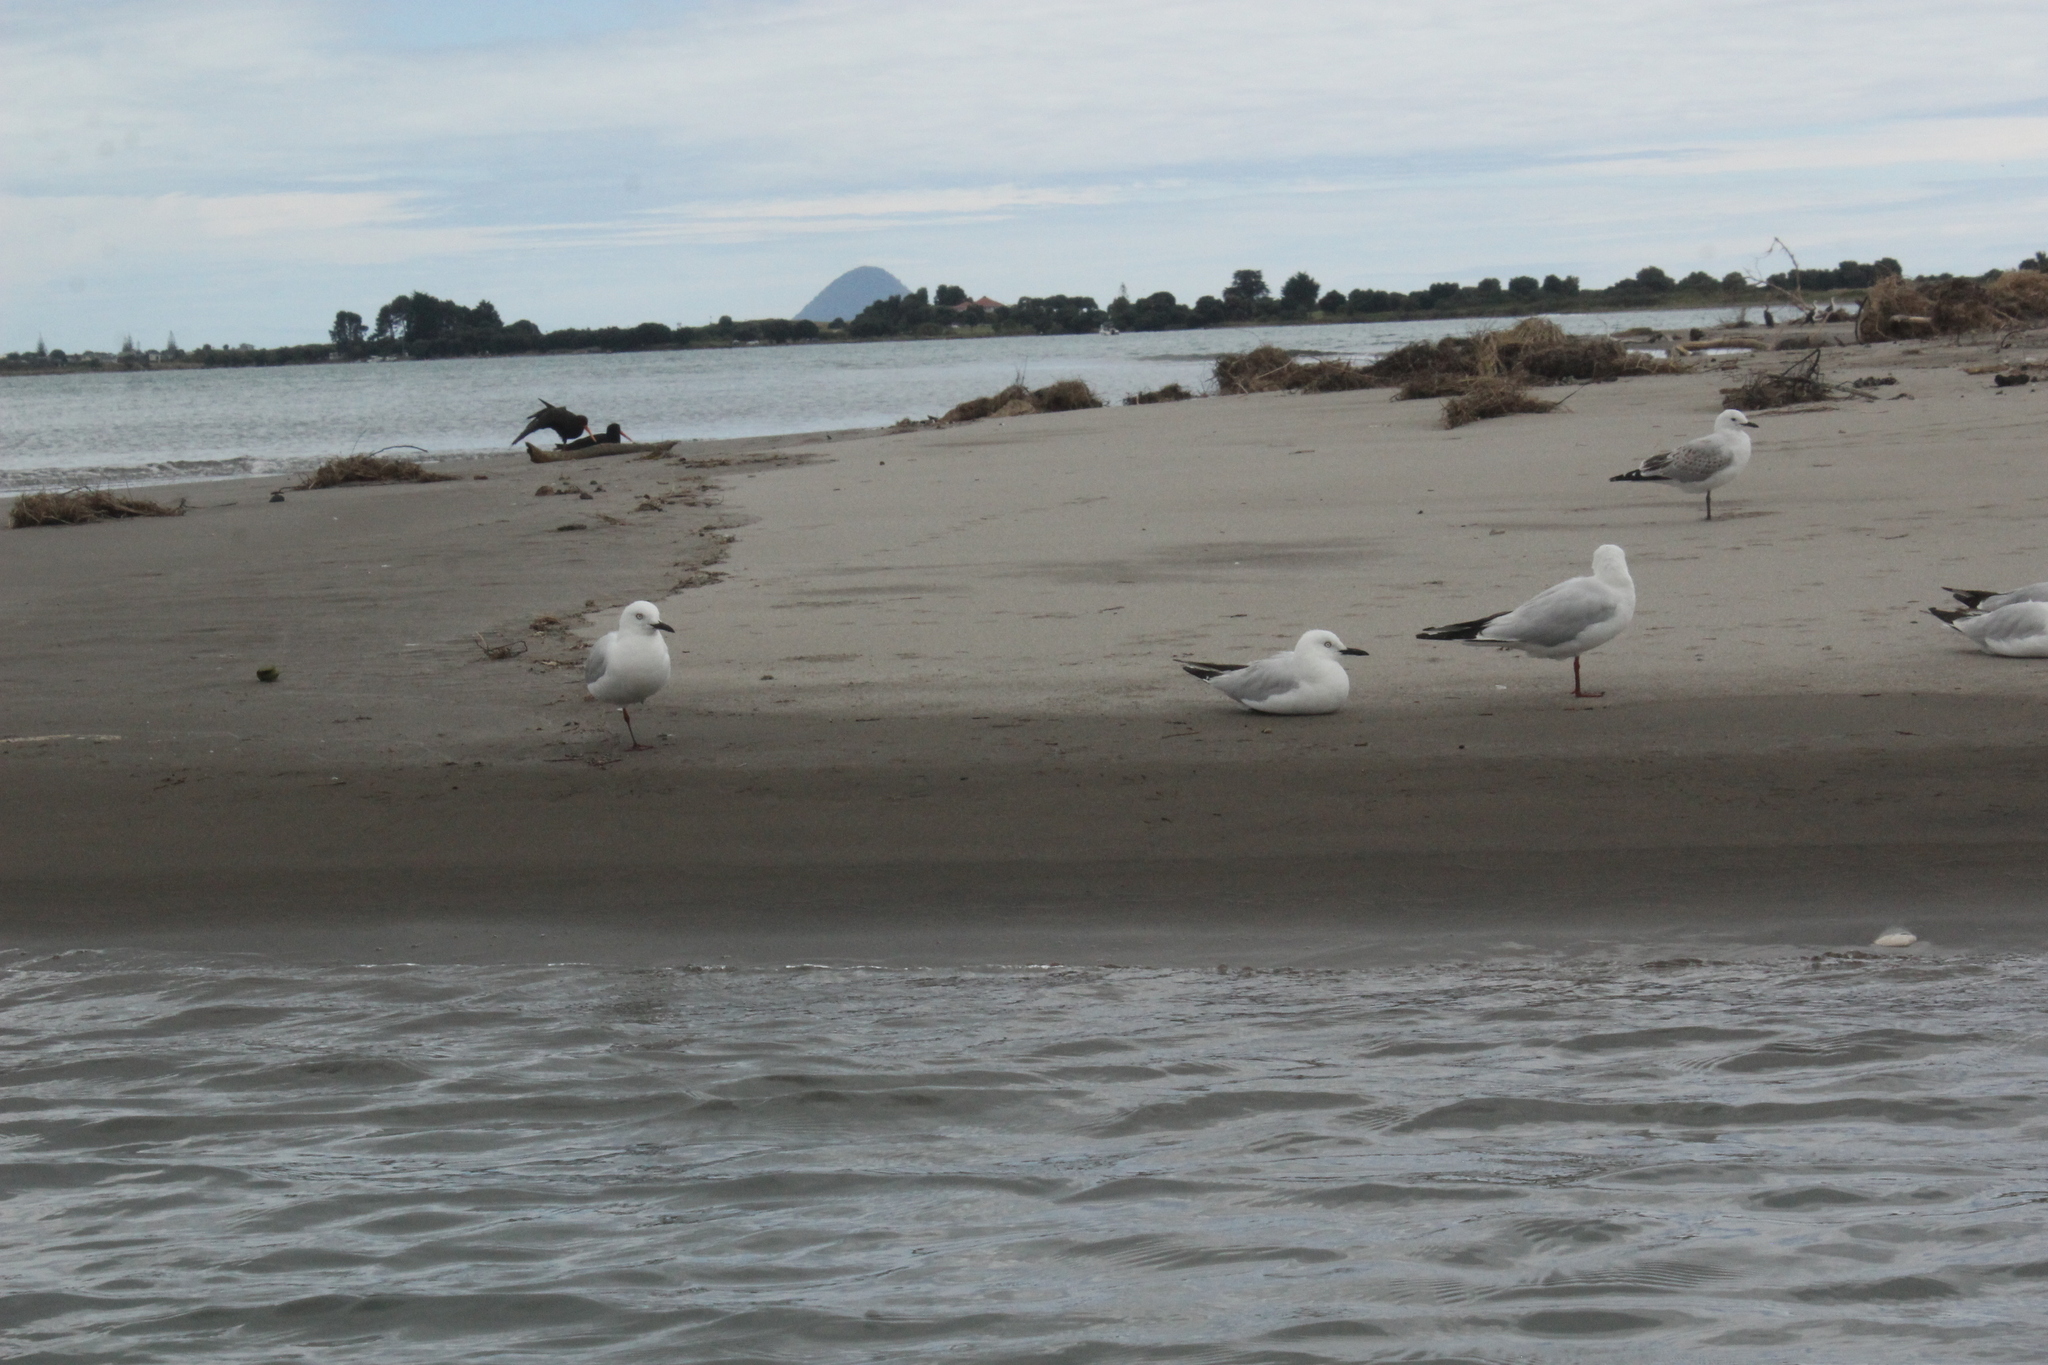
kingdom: Animalia
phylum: Chordata
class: Aves
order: Charadriiformes
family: Laridae
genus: Chroicocephalus
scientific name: Chroicocephalus bulleri
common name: Black-billed gull
